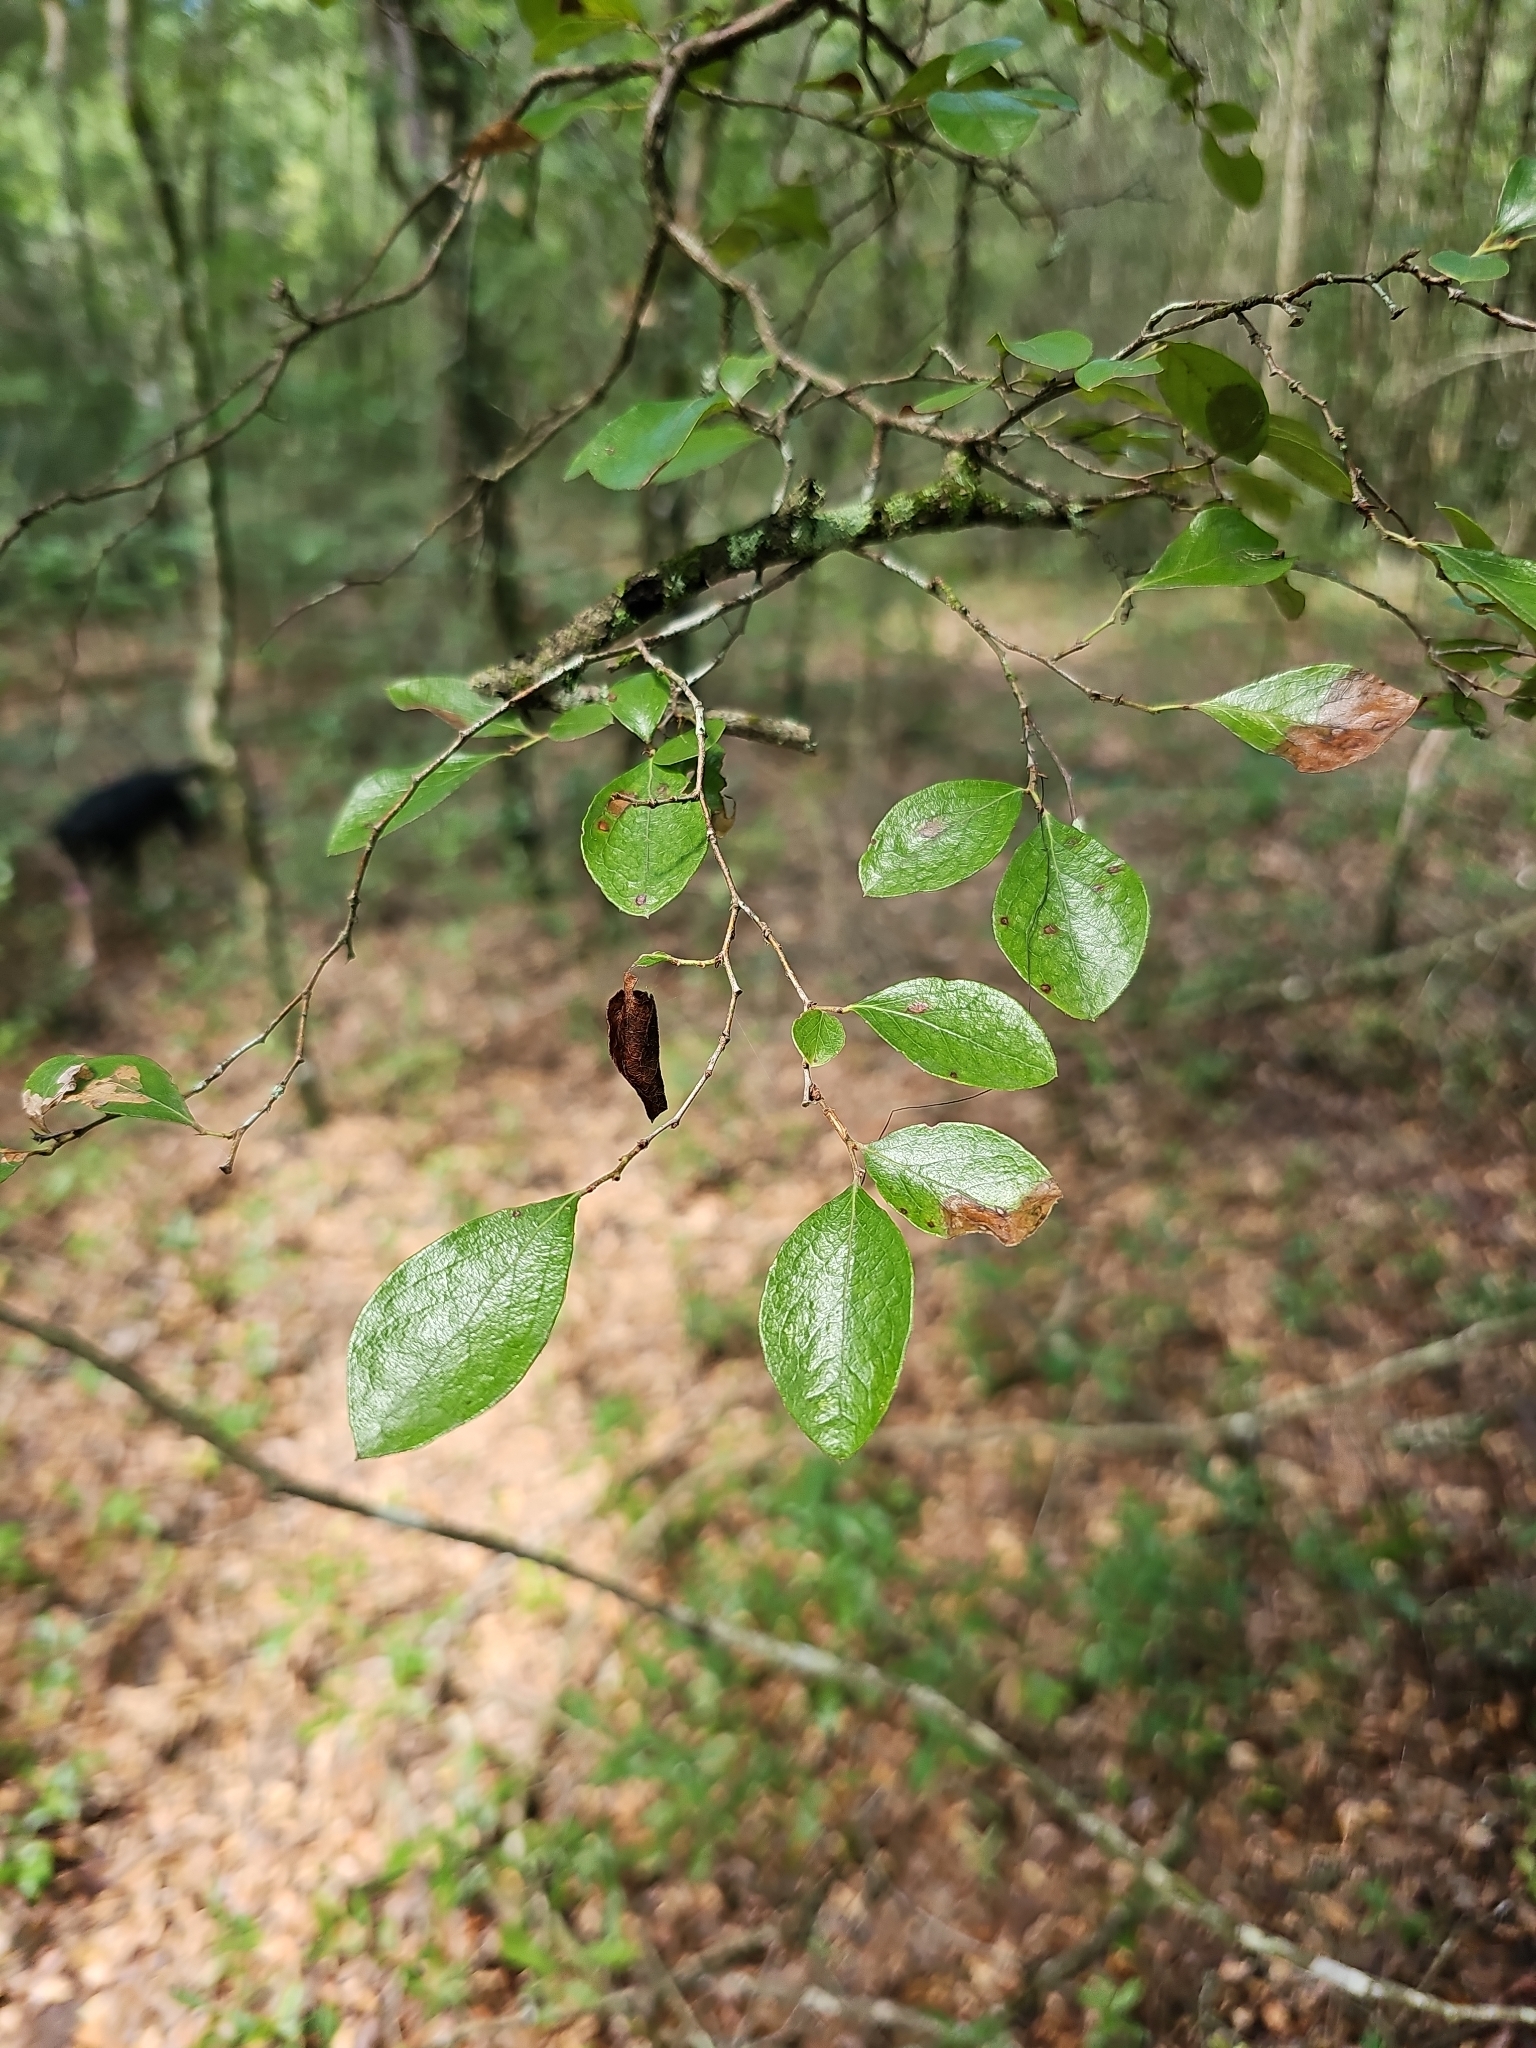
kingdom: Plantae
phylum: Tracheophyta
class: Magnoliopsida
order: Ericales
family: Ericaceae
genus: Vaccinium
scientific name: Vaccinium arboreum
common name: Farkleberry
